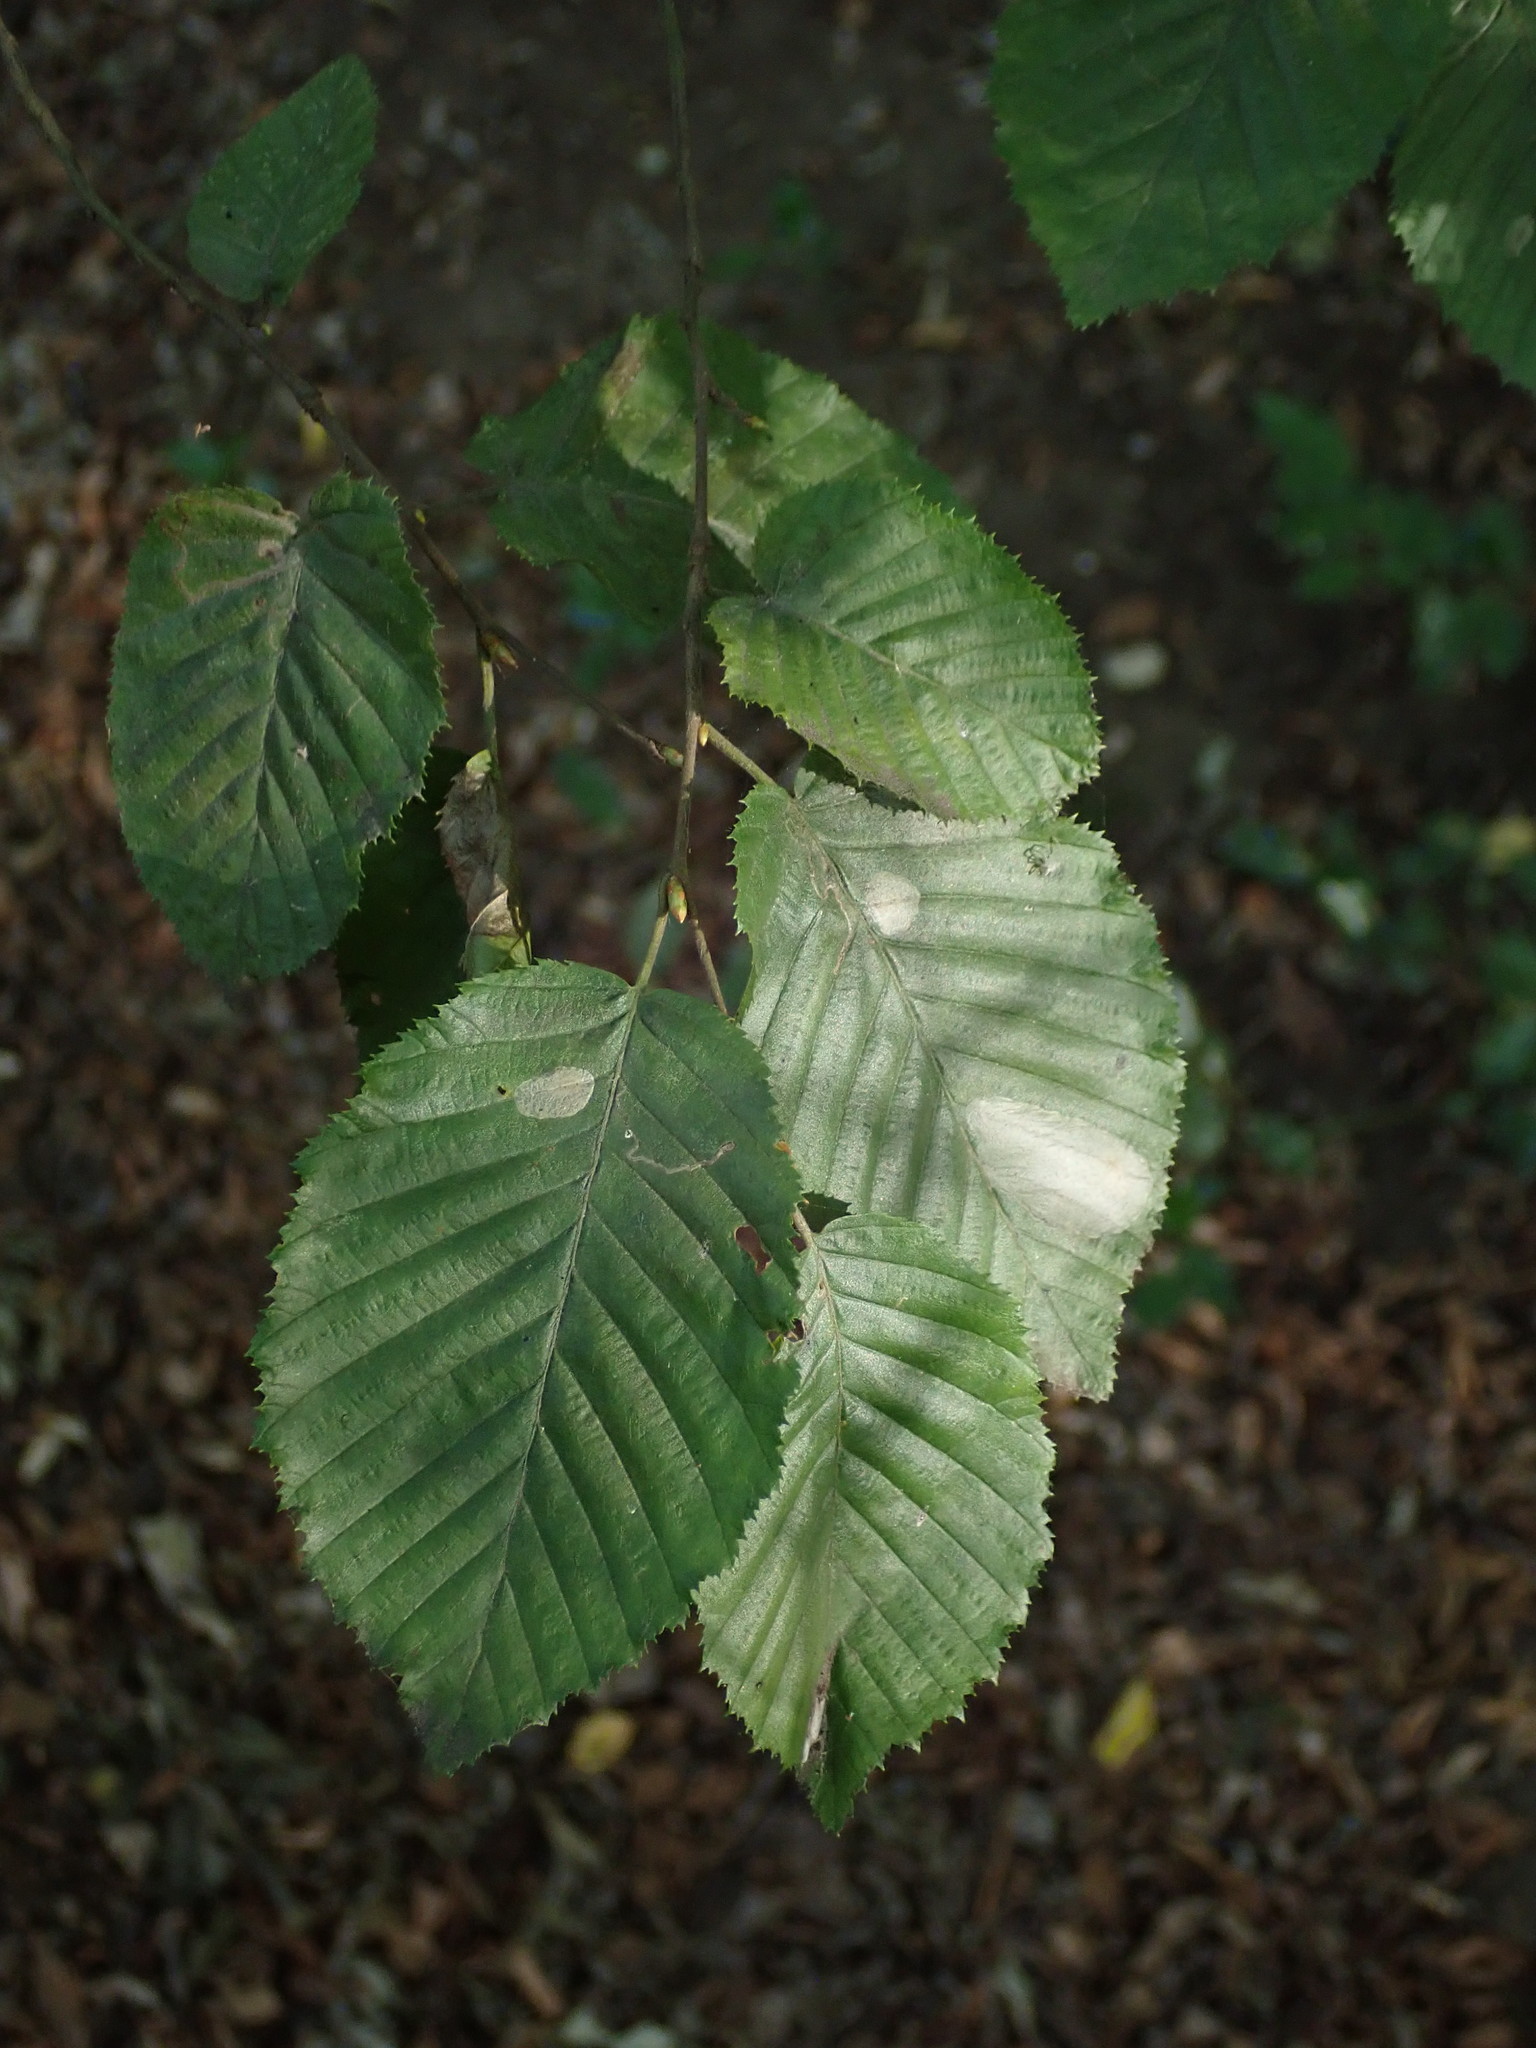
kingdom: Plantae
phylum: Tracheophyta
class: Magnoliopsida
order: Fagales
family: Betulaceae
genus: Carpinus
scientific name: Carpinus betulus
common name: Hornbeam
